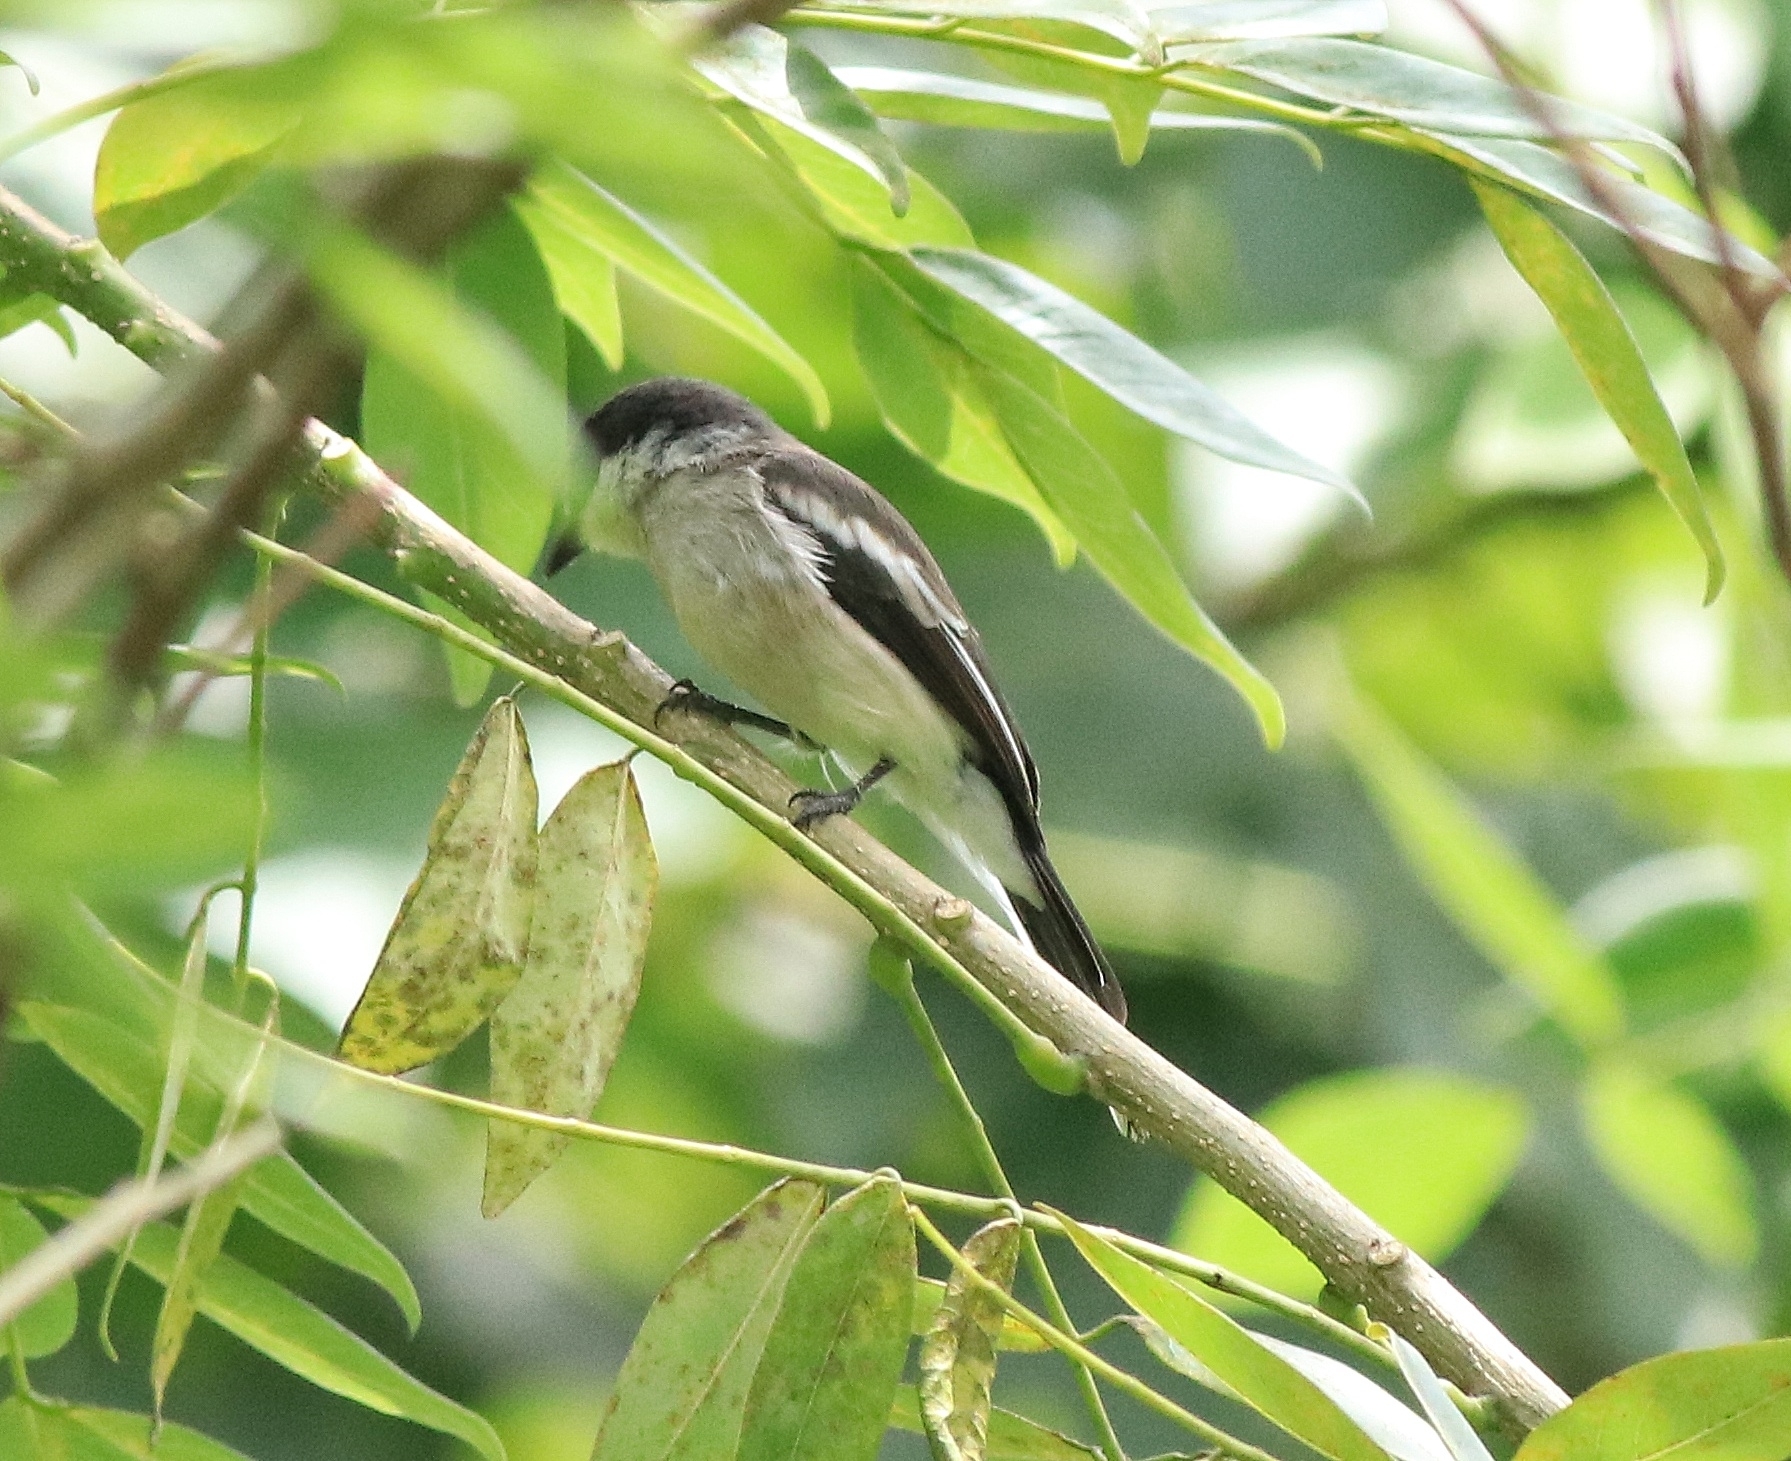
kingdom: Animalia
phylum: Chordata
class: Aves
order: Passeriformes
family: Tephrodornithidae
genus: Hemipus
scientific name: Hemipus picatus
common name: Bar-winged flycatcher-shrike
